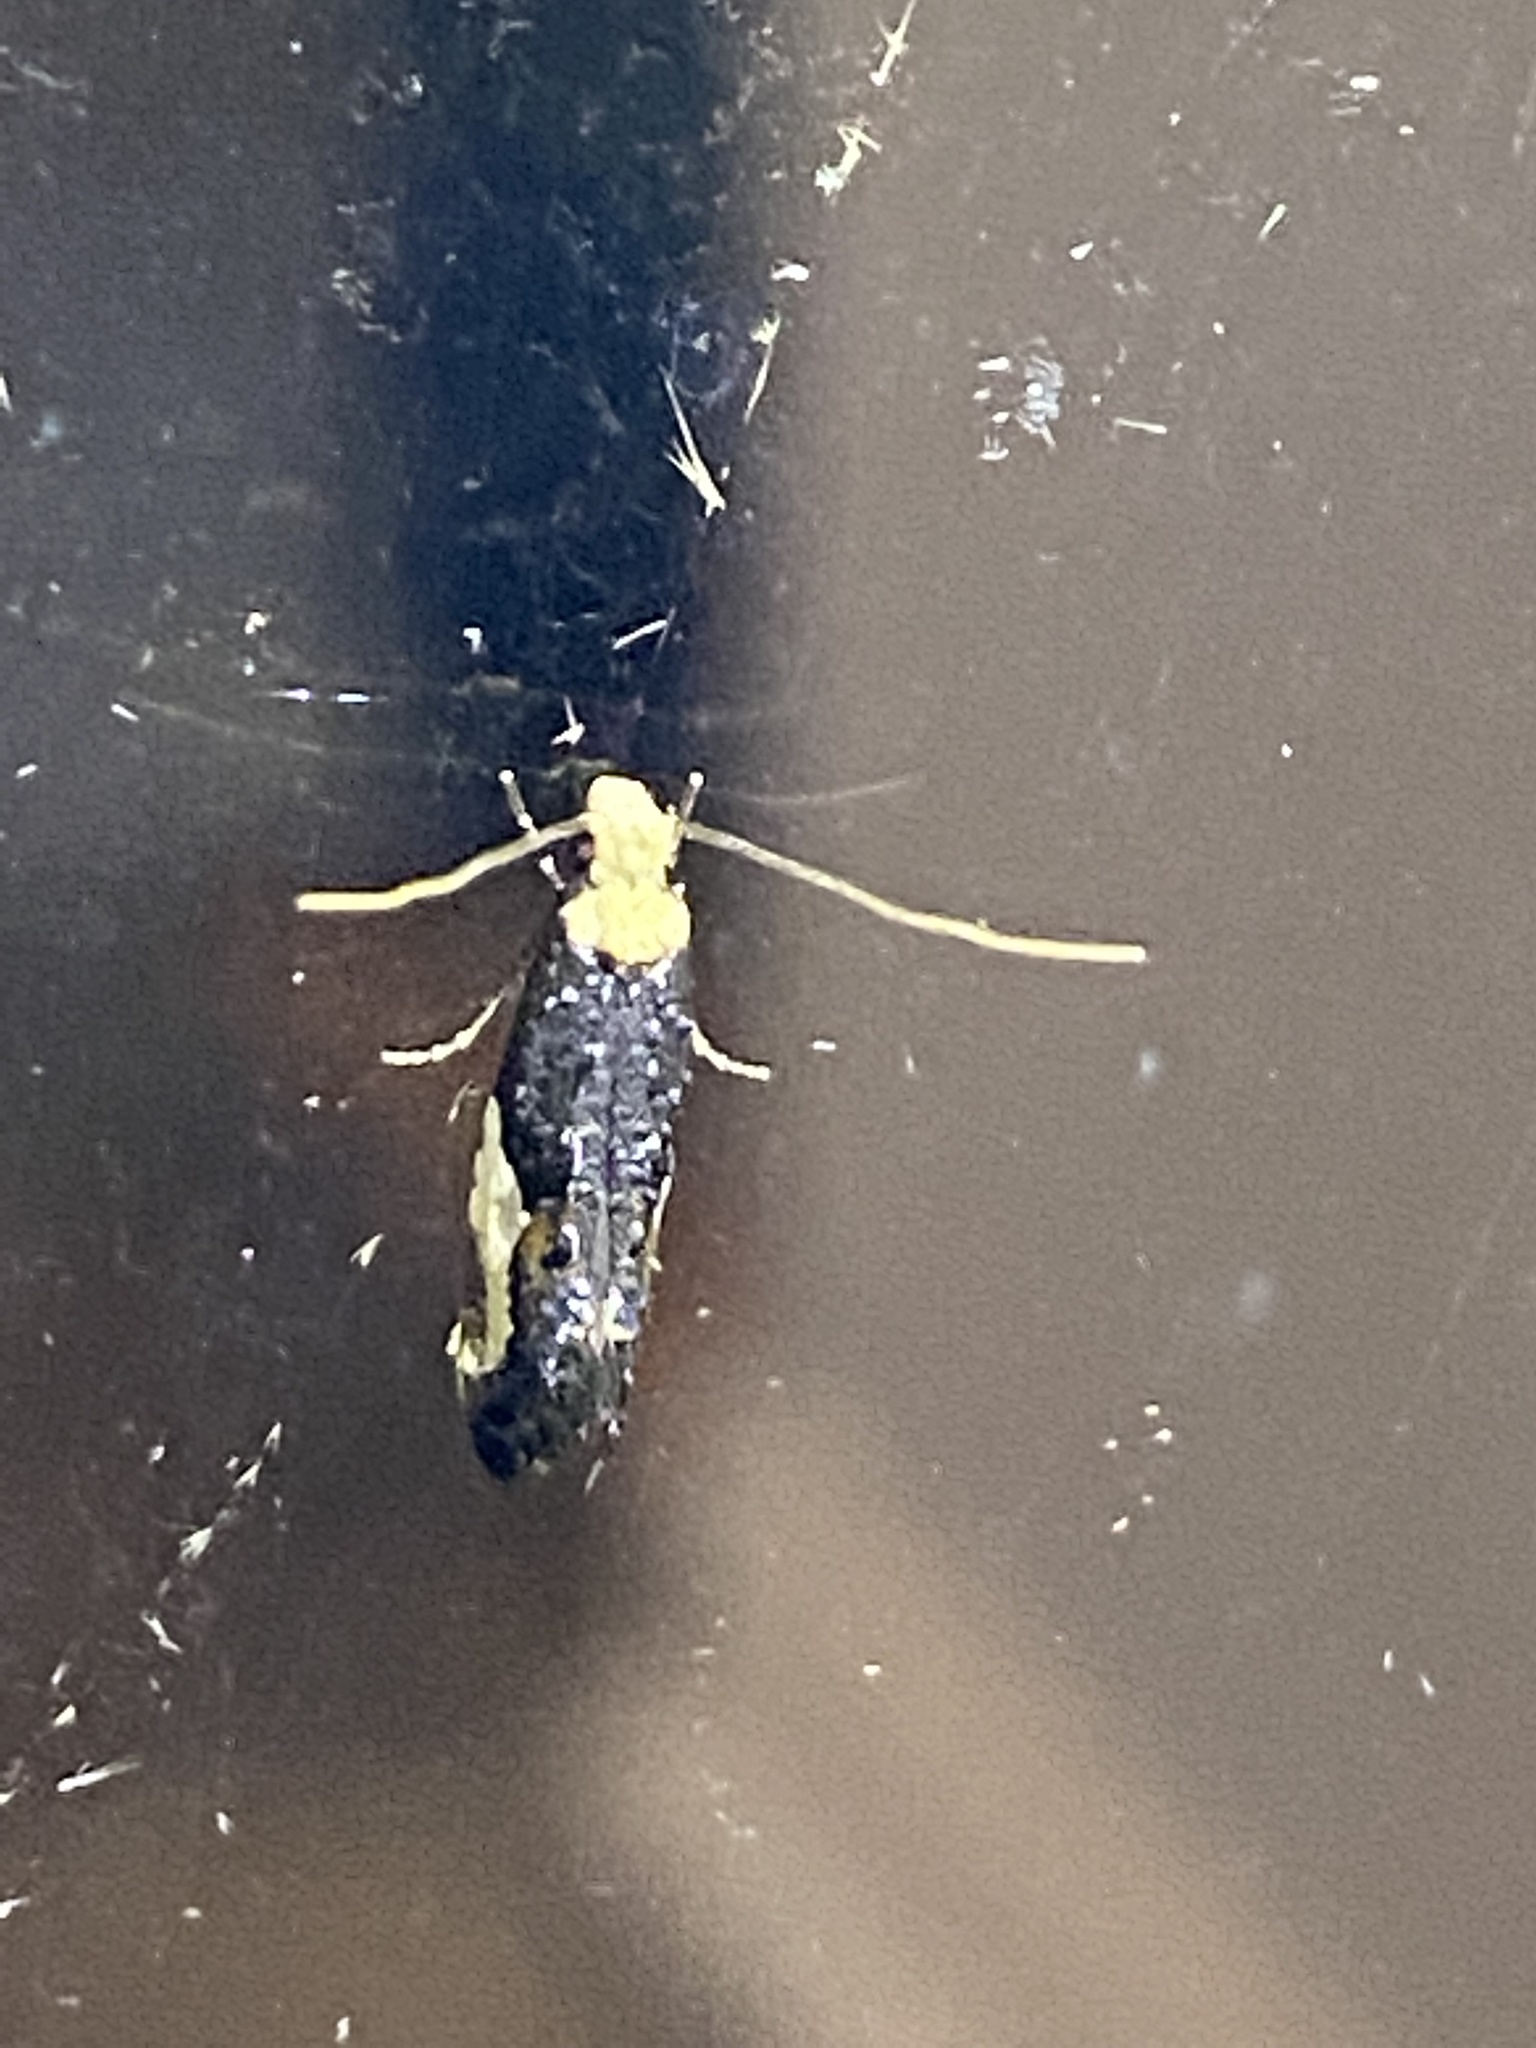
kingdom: Animalia
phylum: Arthropoda
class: Insecta
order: Lepidoptera
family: Tineidae
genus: Monopis
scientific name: Monopis longella
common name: Pavlovski's monopis moth
